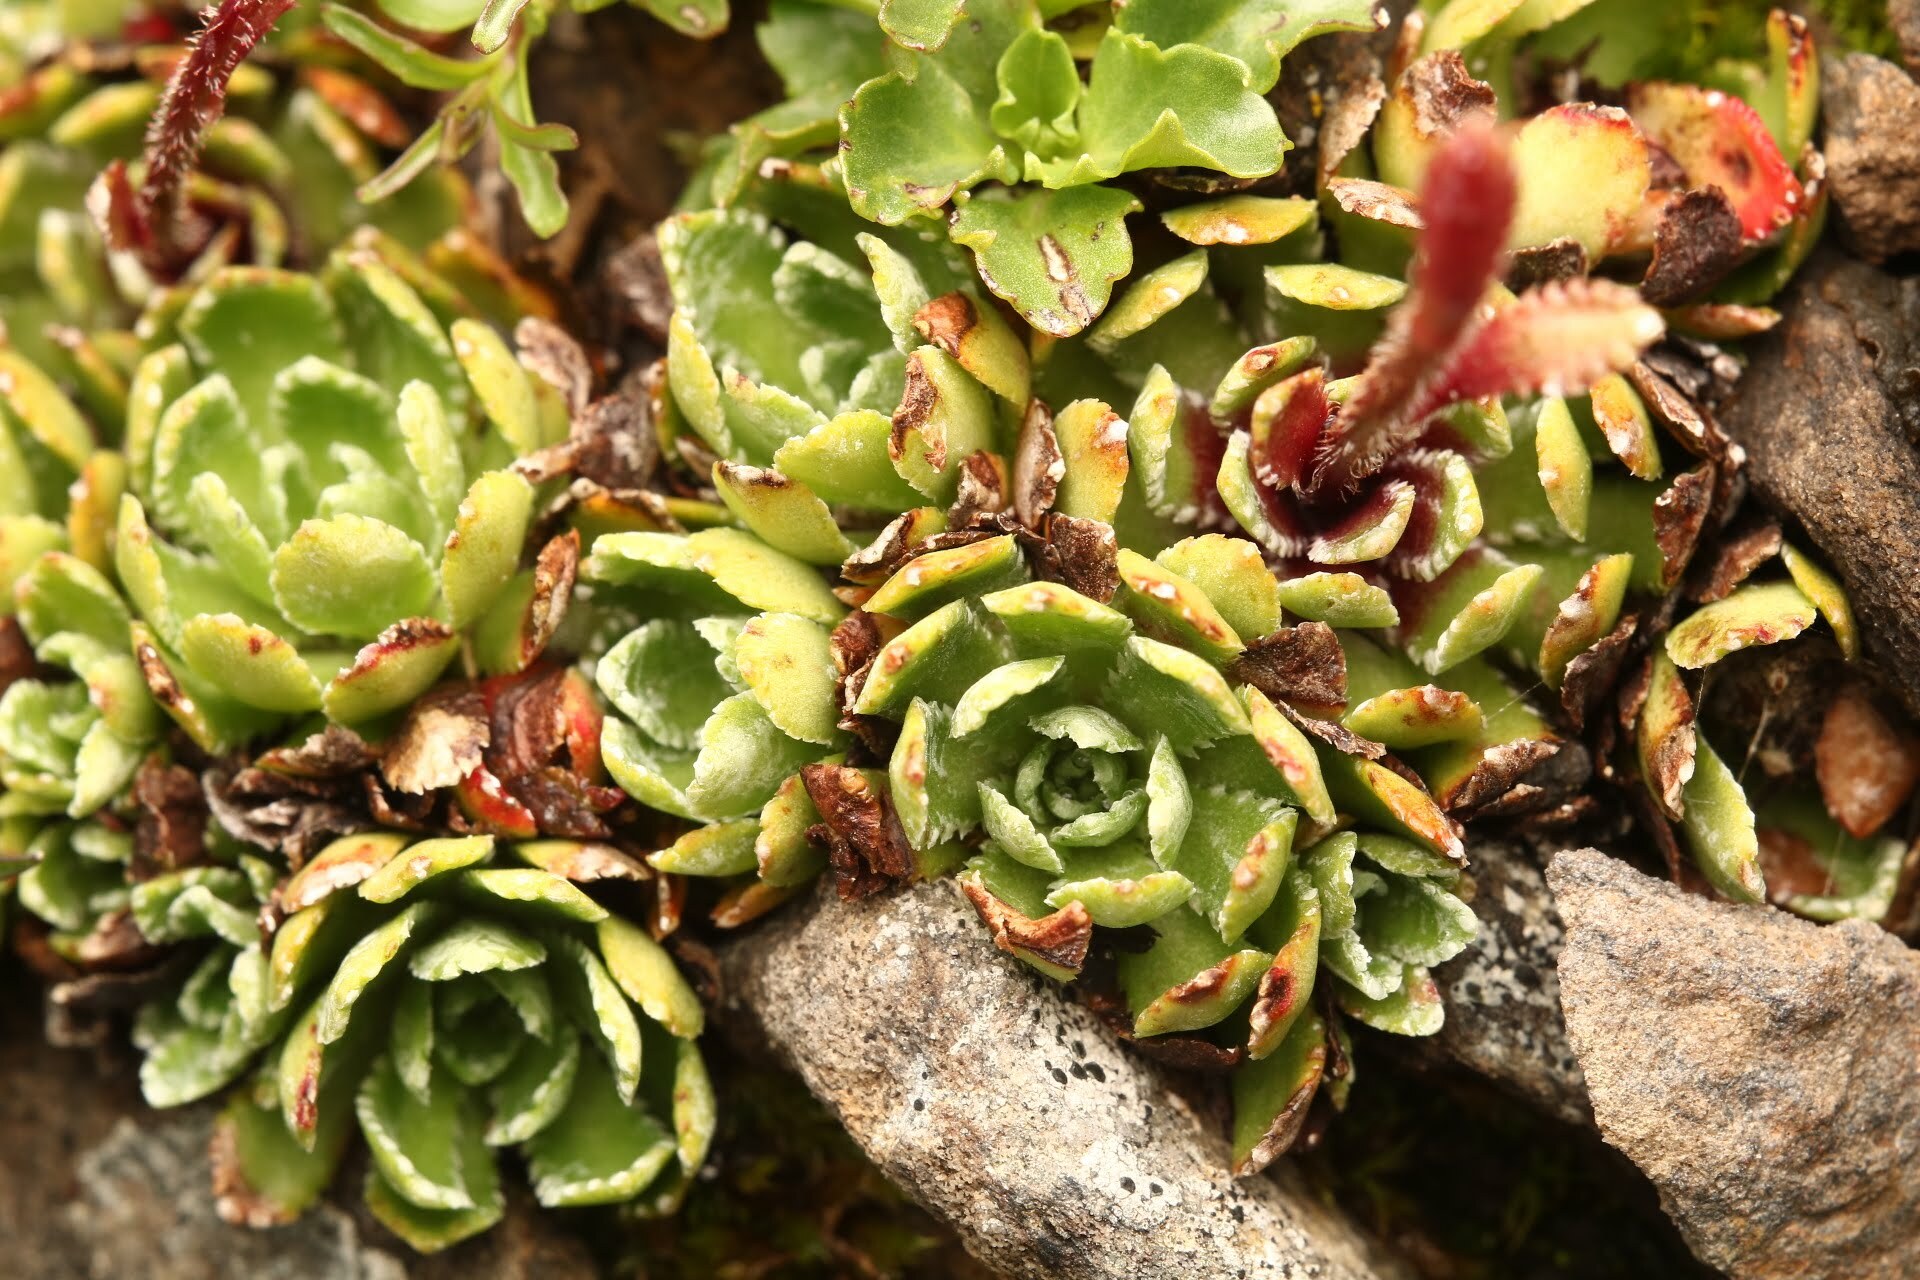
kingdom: Plantae
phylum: Tracheophyta
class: Magnoliopsida
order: Saxifragales
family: Saxifragaceae
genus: Saxifraga
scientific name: Saxifraga paniculata
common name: Livelong saxifrage
